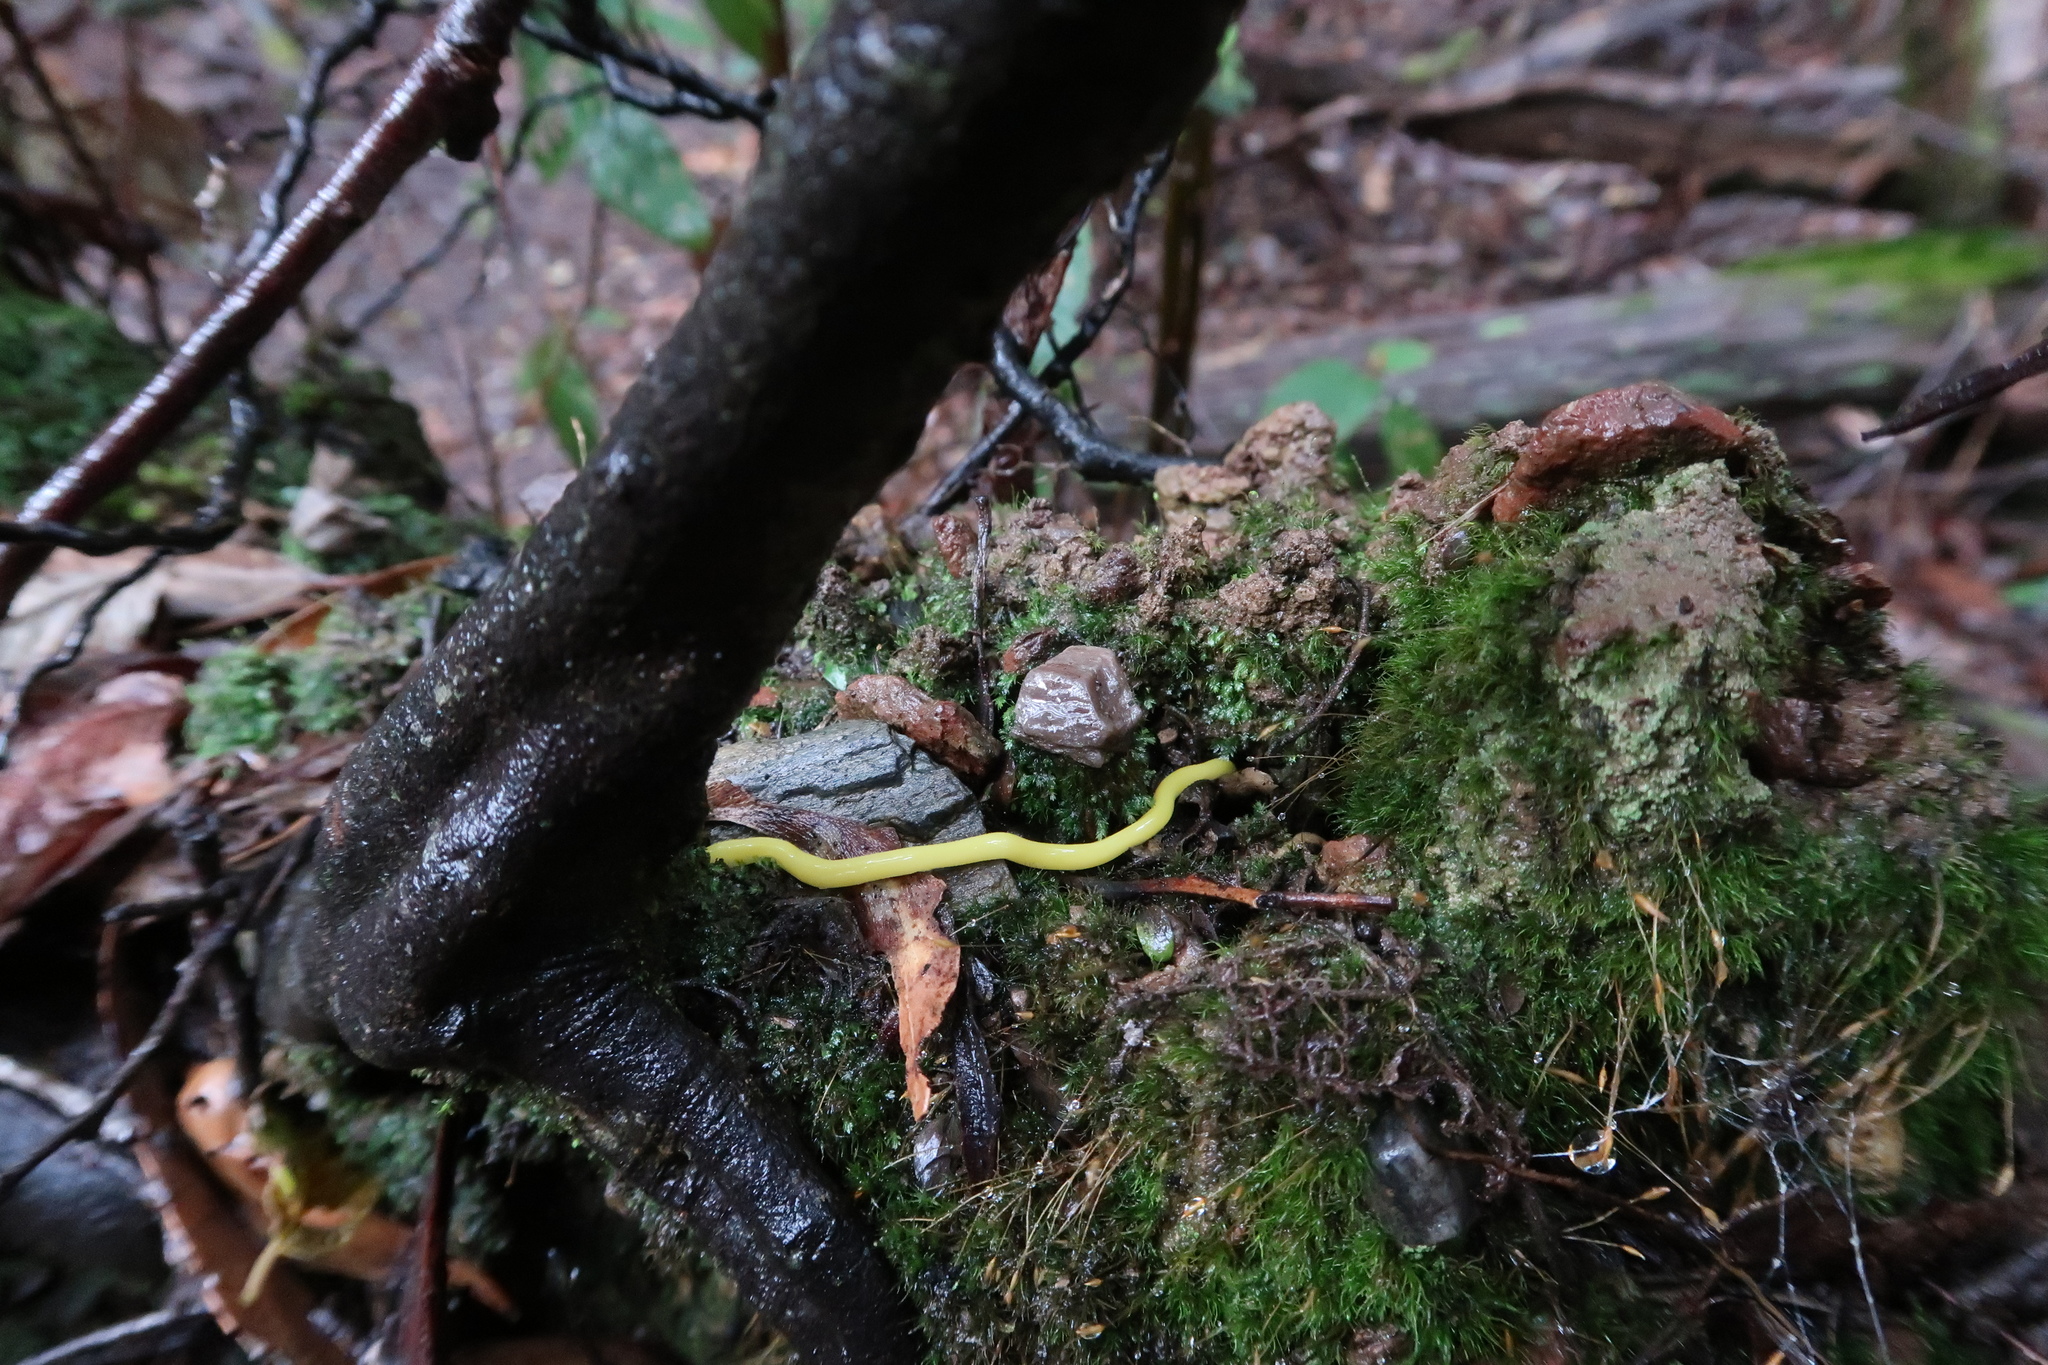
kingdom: Animalia
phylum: Platyhelminthes
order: Tricladida
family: Geoplanidae
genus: Fletchamia
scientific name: Fletchamia sugdeni
